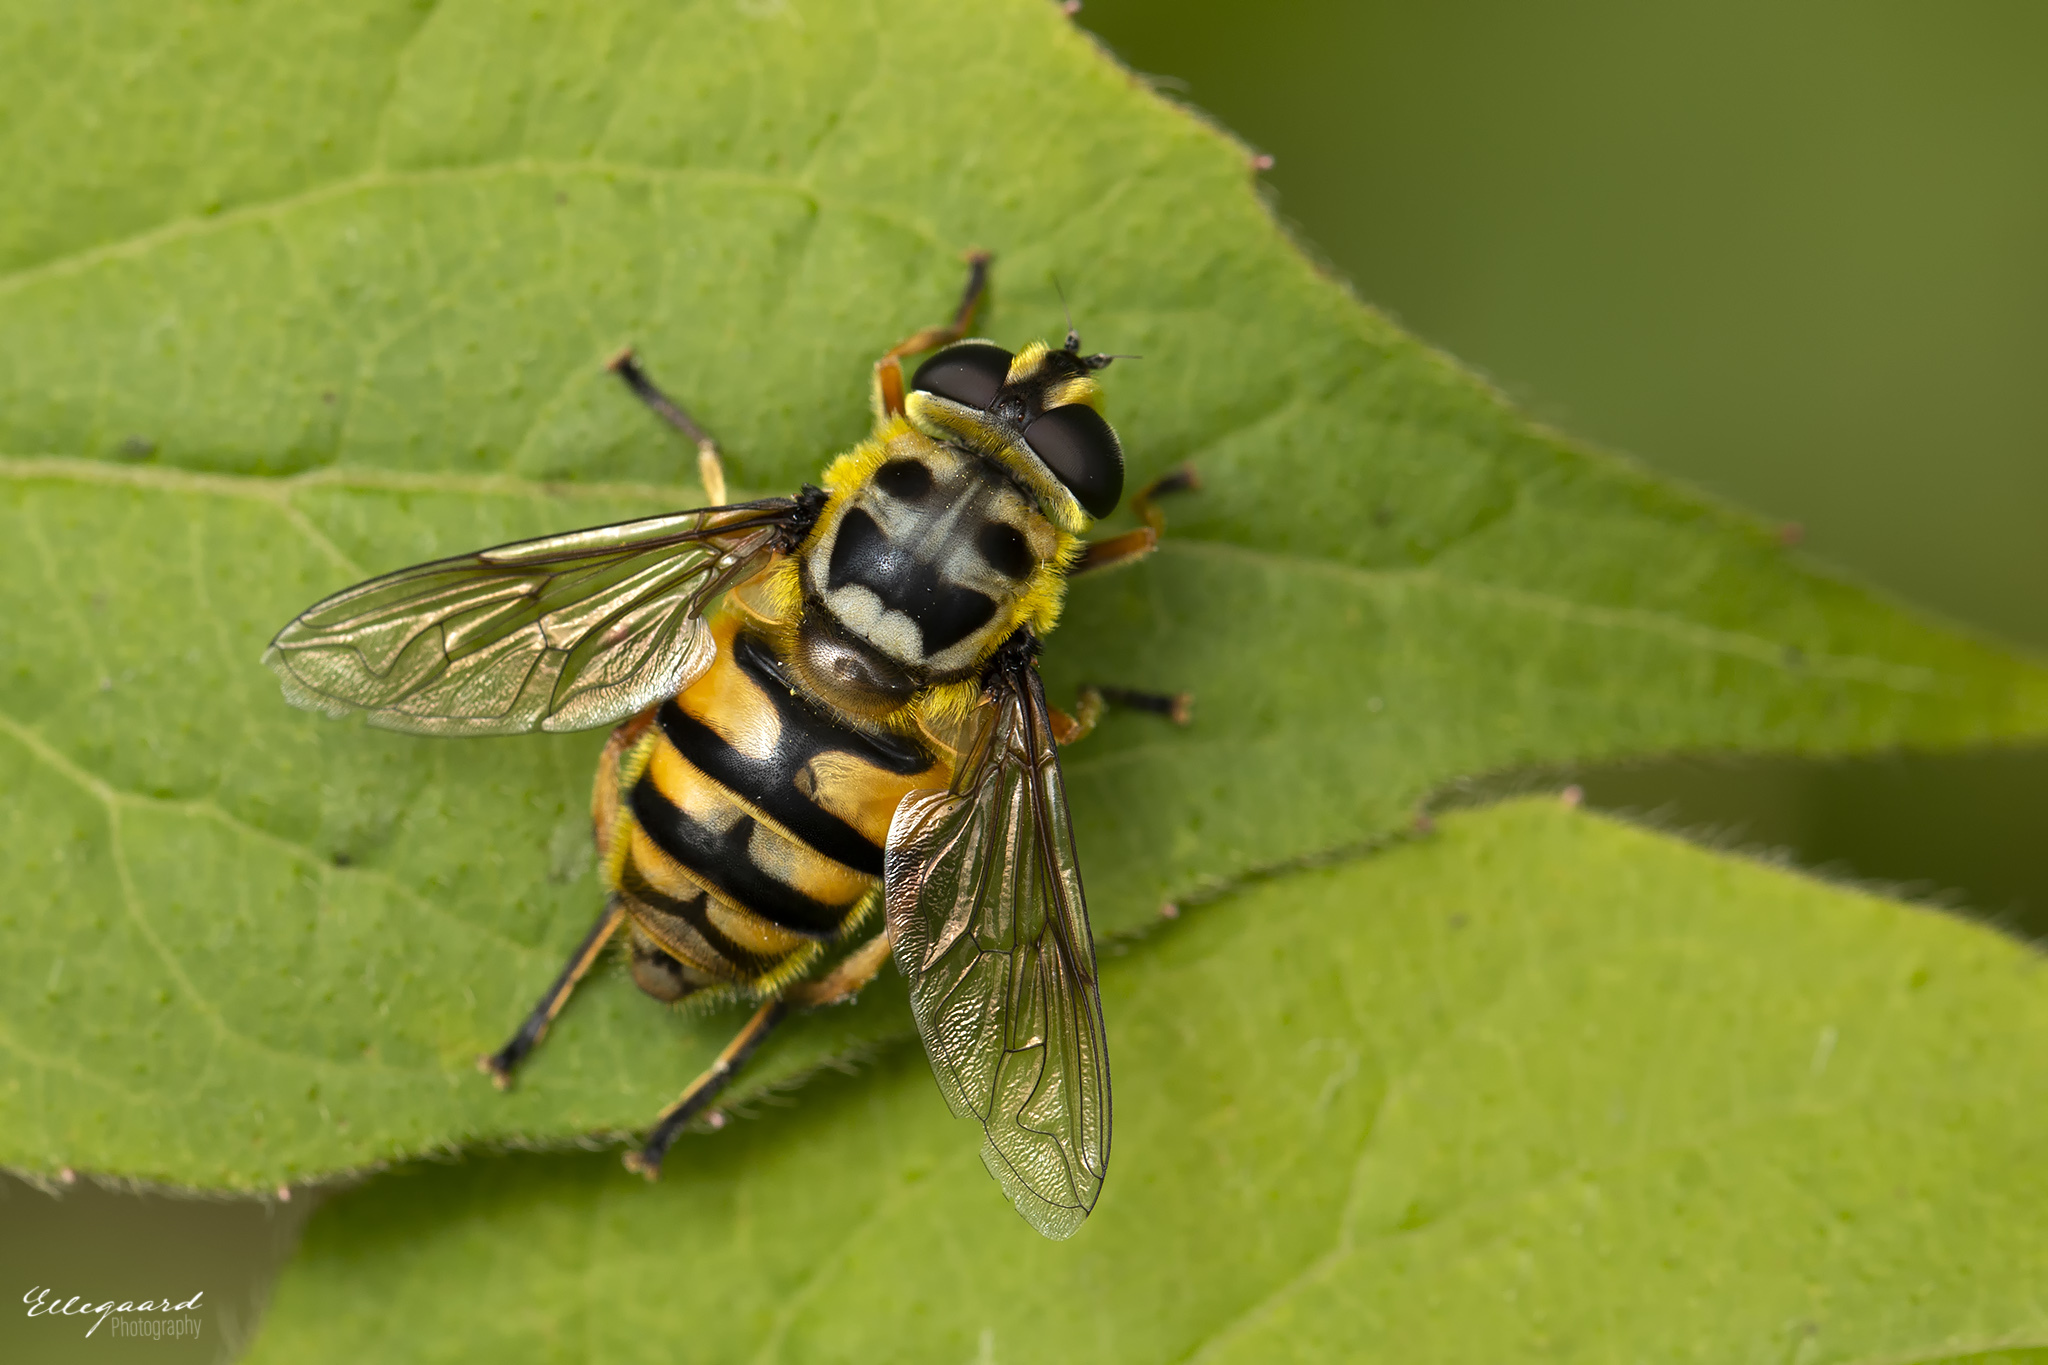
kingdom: Animalia
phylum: Arthropoda
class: Insecta
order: Diptera
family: Syrphidae
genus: Myathropa
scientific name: Myathropa florea
